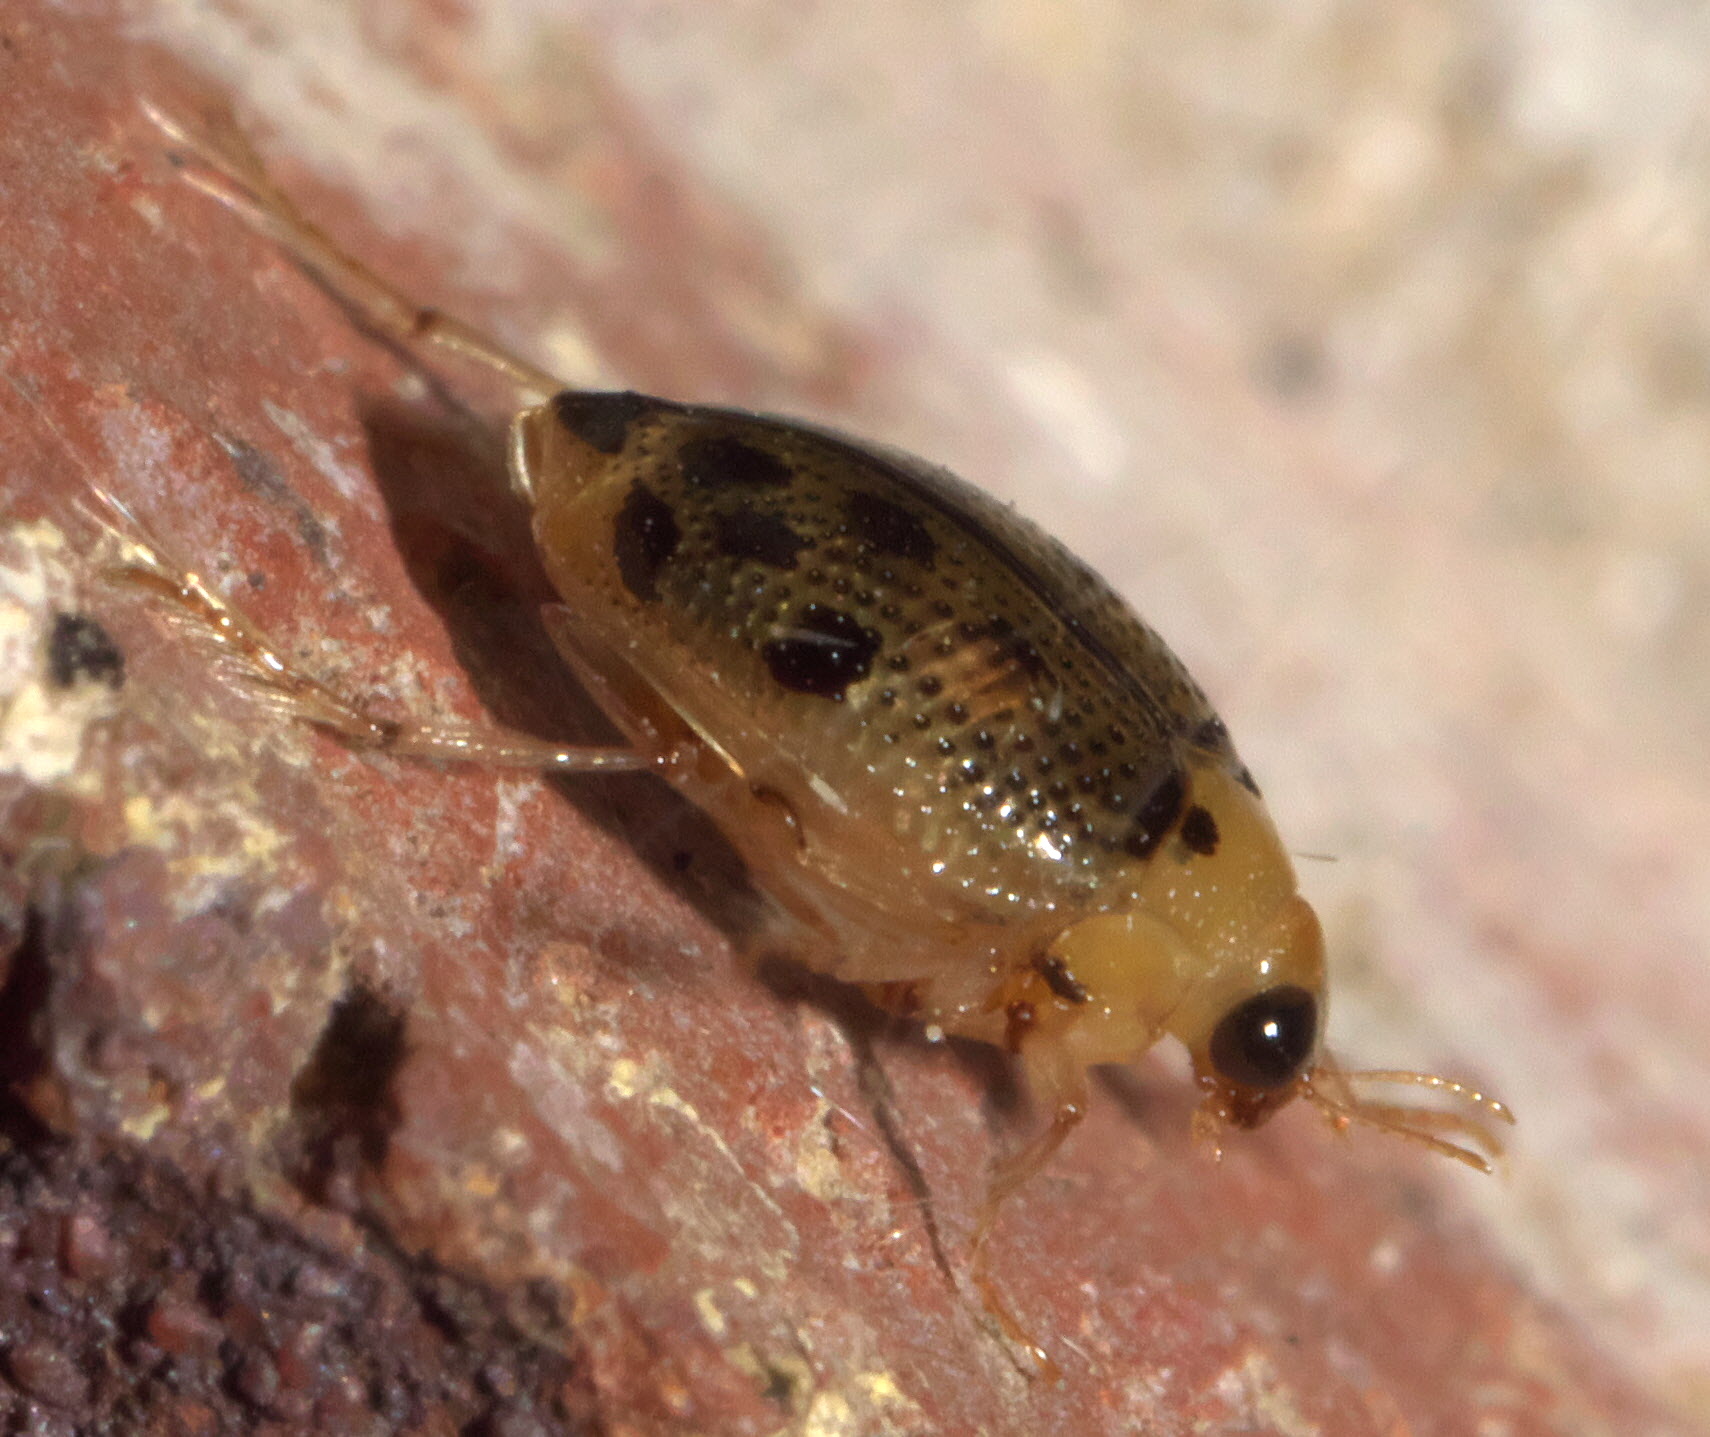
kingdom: Animalia
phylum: Arthropoda
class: Insecta
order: Coleoptera
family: Haliplidae
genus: Peltodytes
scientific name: Peltodytes litoralis
